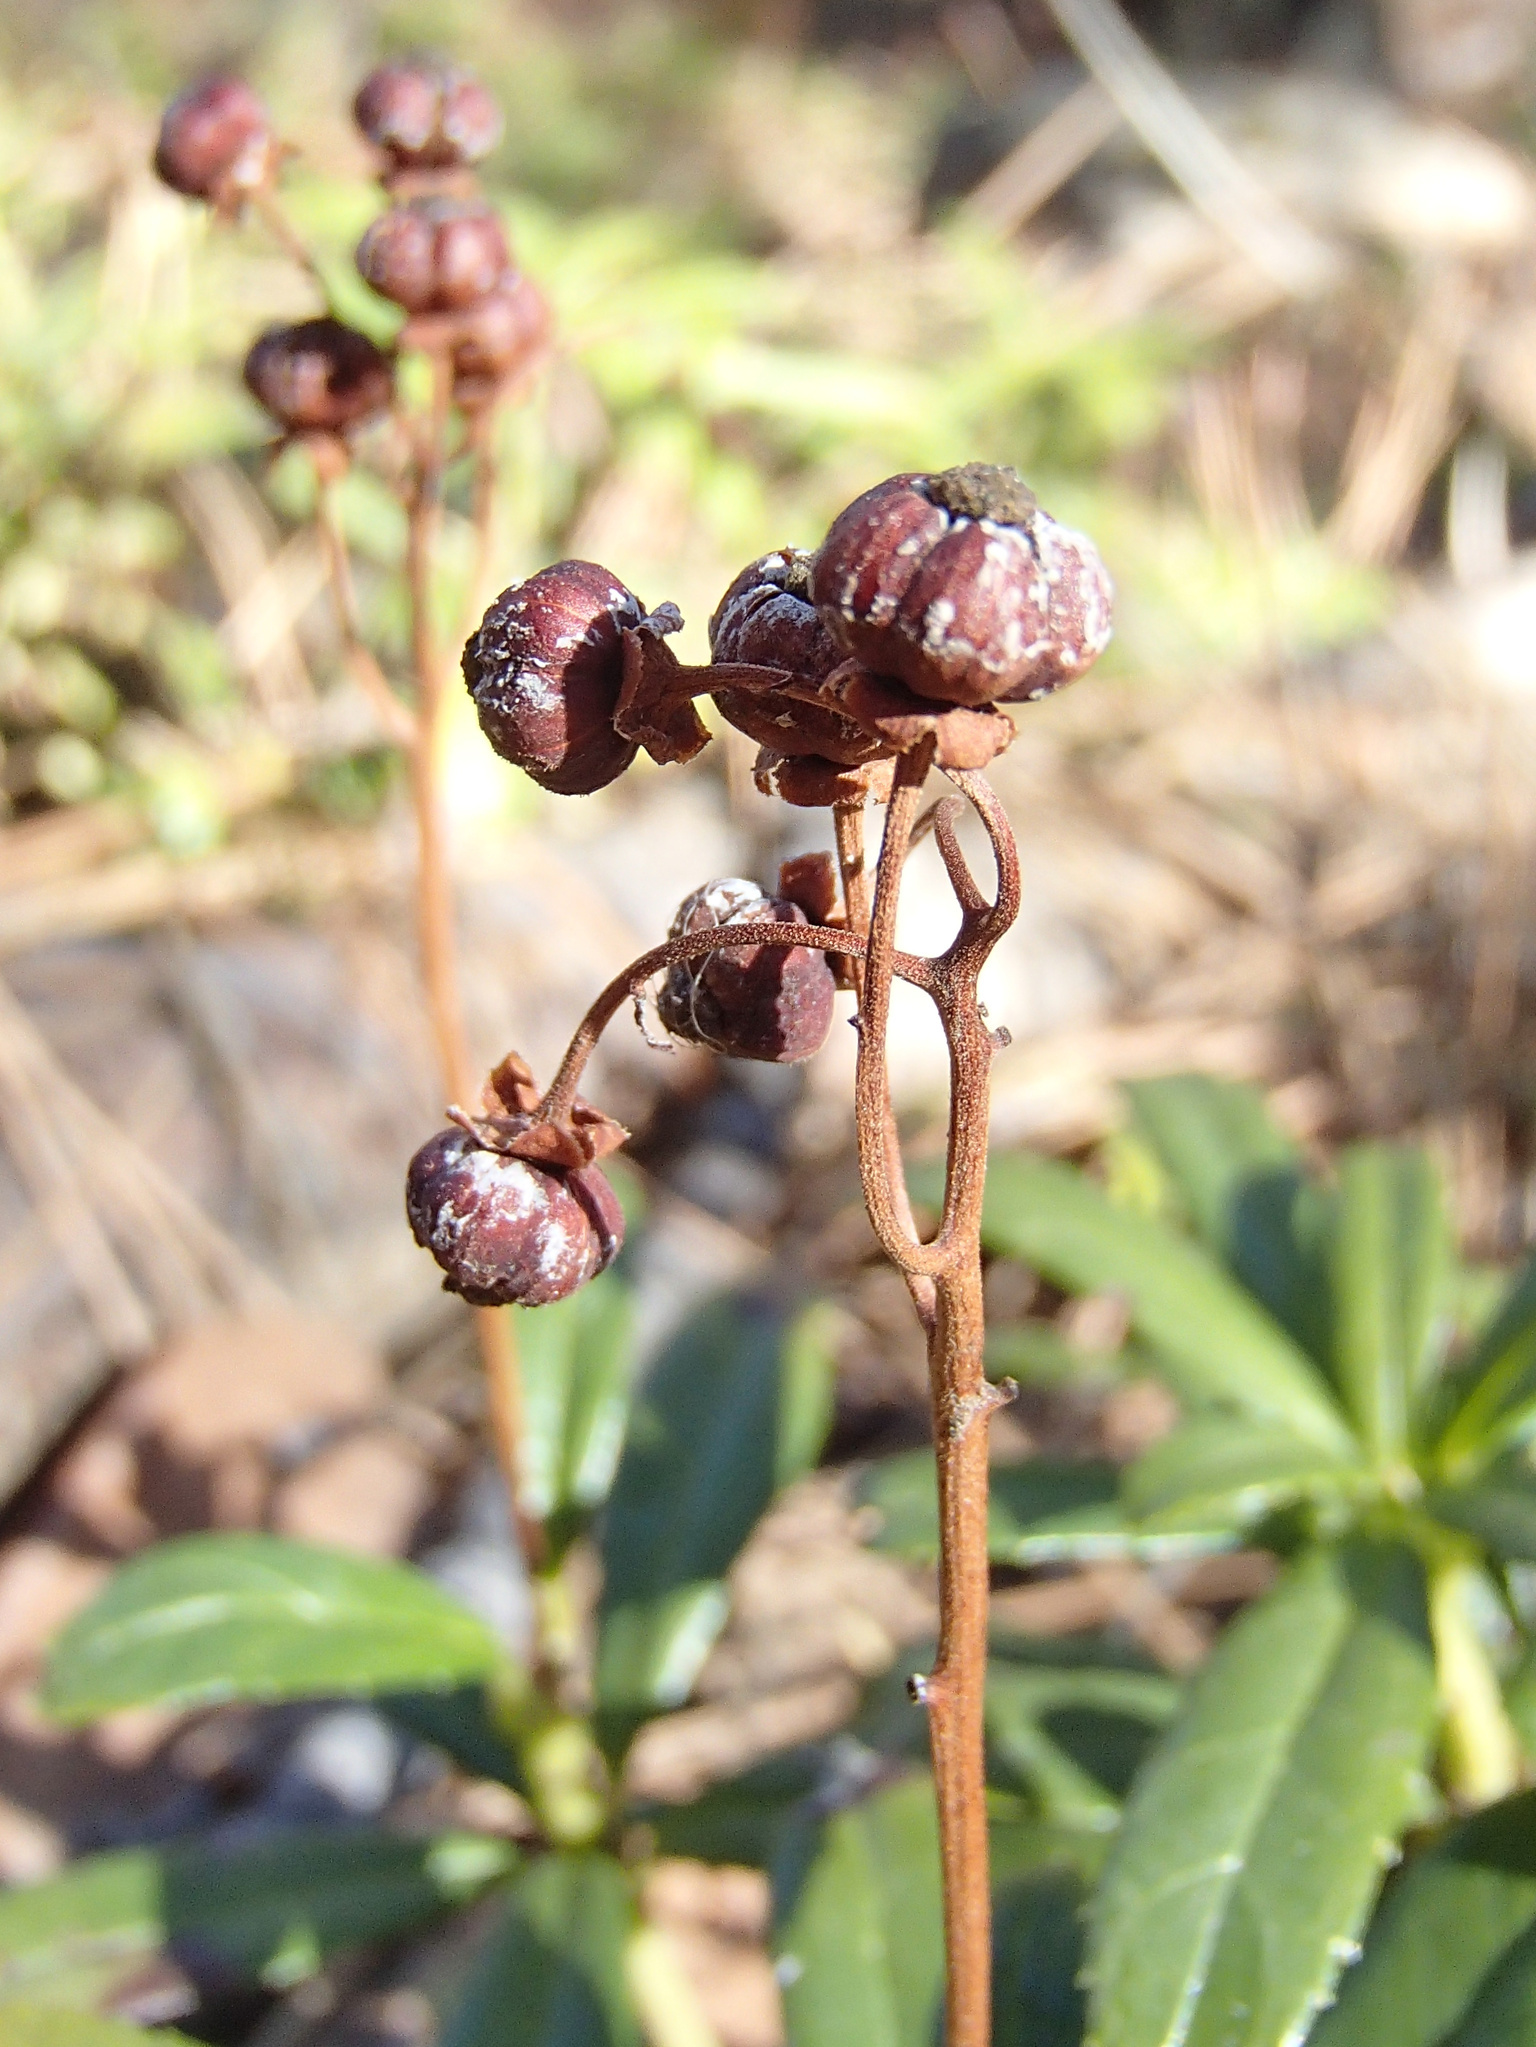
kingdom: Plantae
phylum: Tracheophyta
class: Magnoliopsida
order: Ericales
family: Ericaceae
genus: Chimaphila
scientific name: Chimaphila umbellata
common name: Pipsissewa
